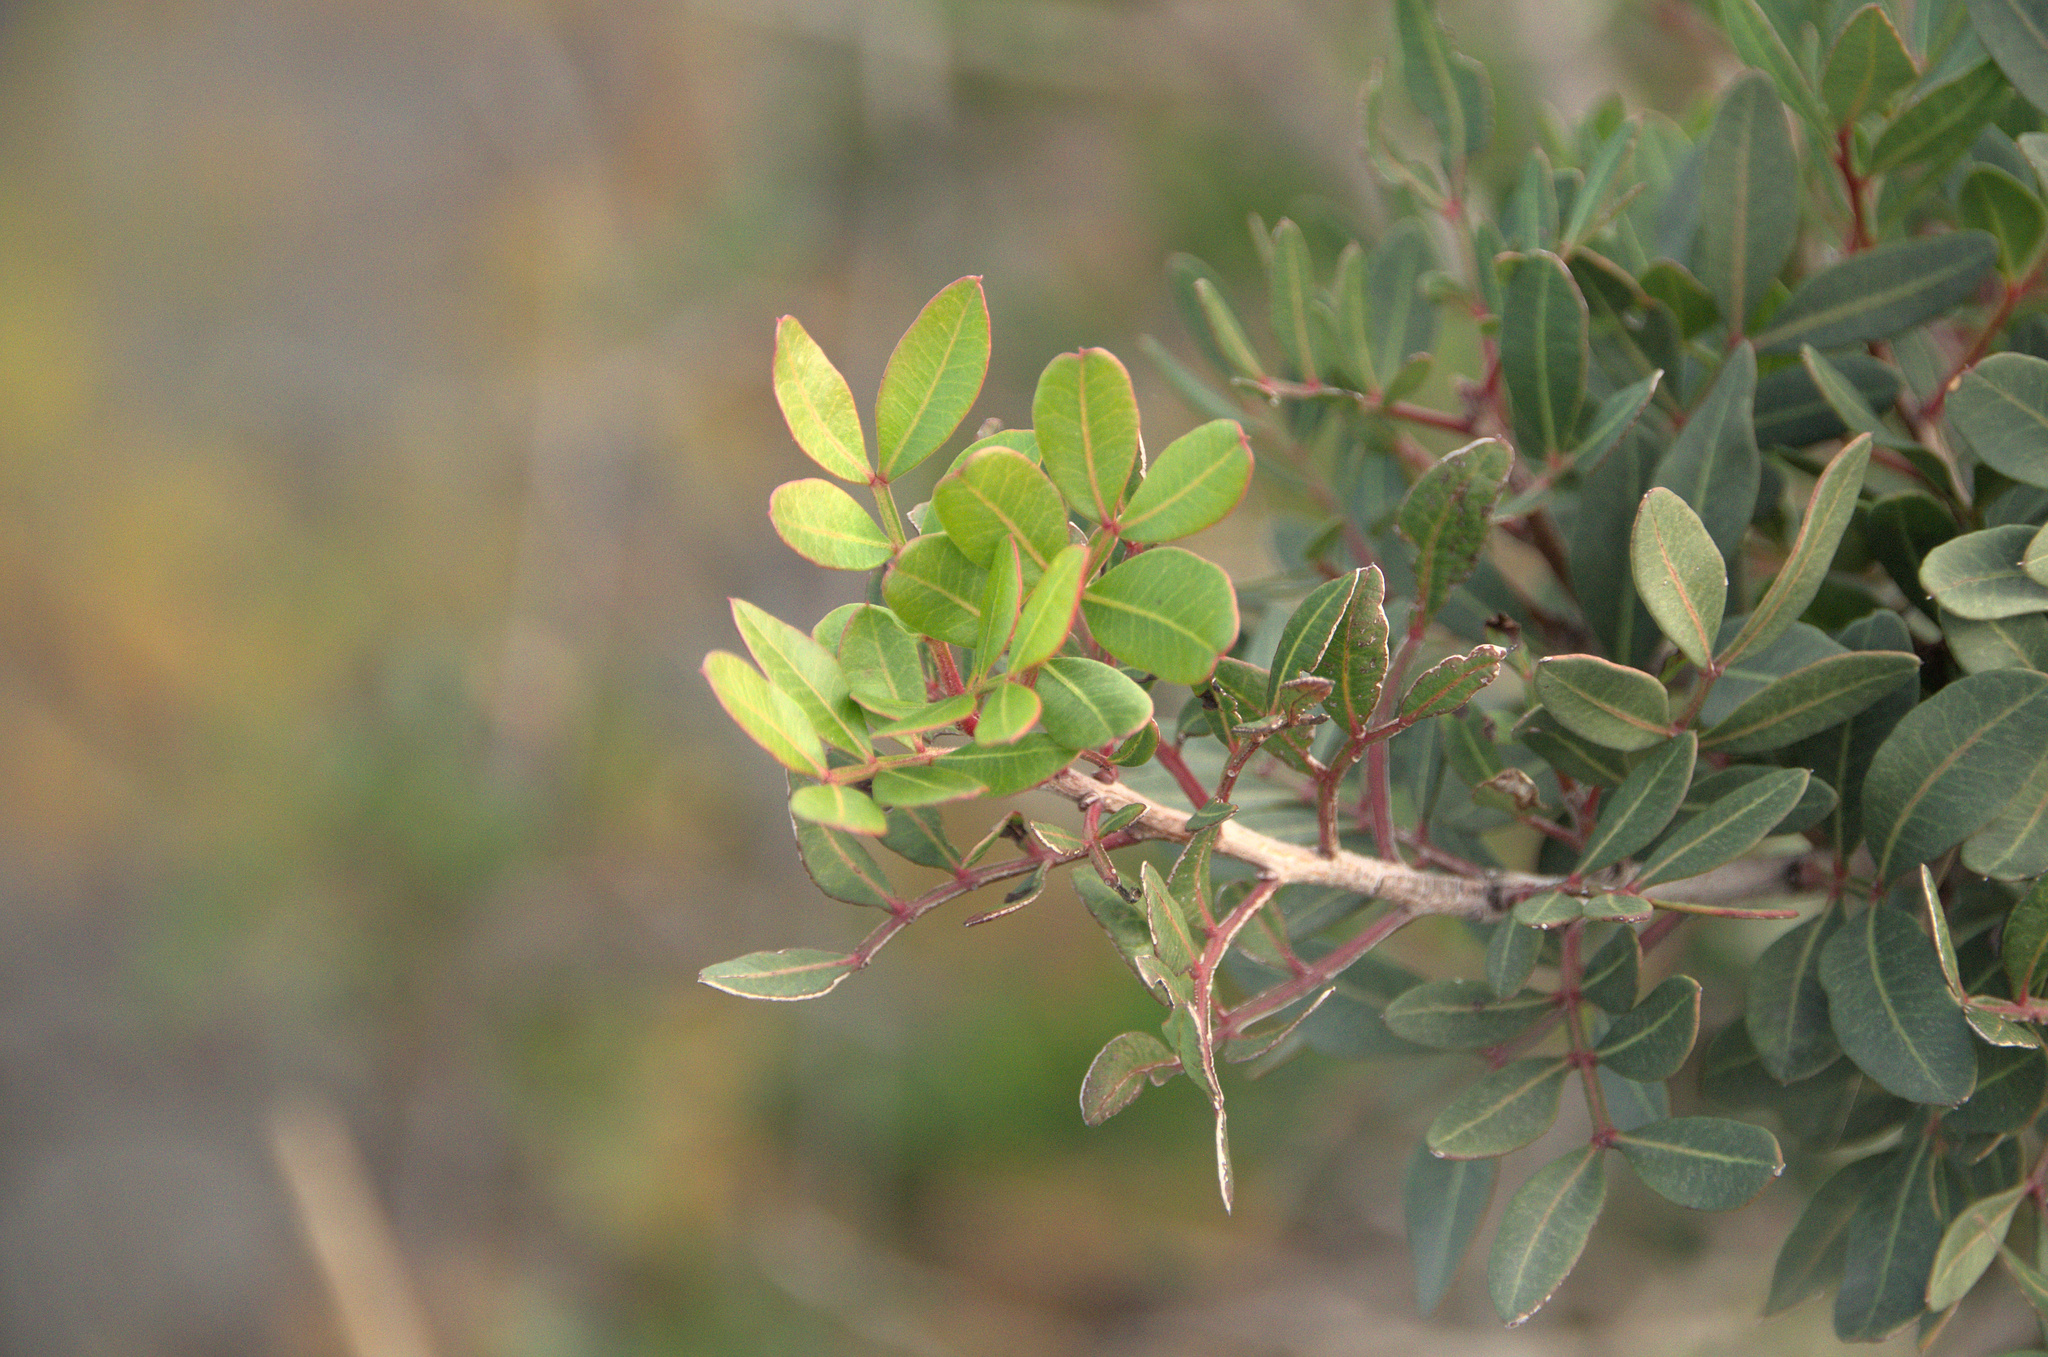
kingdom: Plantae
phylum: Tracheophyta
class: Magnoliopsida
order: Sapindales
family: Anacardiaceae
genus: Pistacia
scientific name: Pistacia lentiscus
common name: Lentisk
